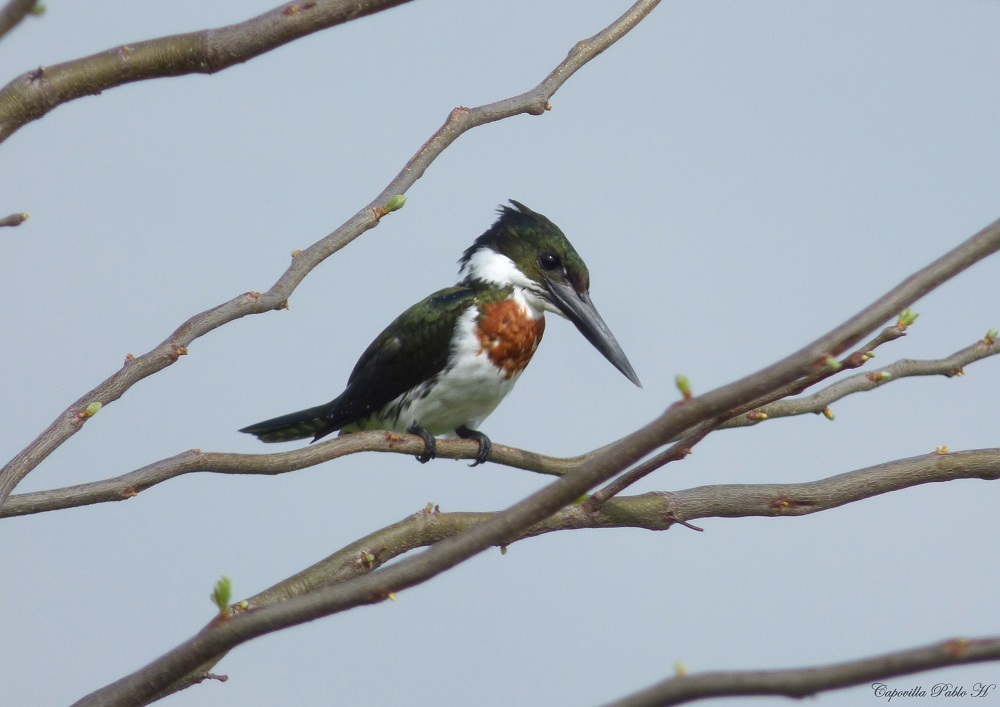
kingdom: Animalia
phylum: Chordata
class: Aves
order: Coraciiformes
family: Alcedinidae
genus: Chloroceryle
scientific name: Chloroceryle amazona
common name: Amazon kingfisher
